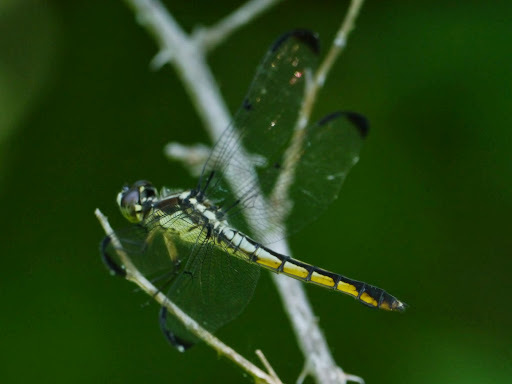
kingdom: Animalia
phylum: Arthropoda
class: Insecta
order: Odonata
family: Libellulidae
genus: Libellula
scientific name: Libellula vibrans
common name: Great blue skimmer
